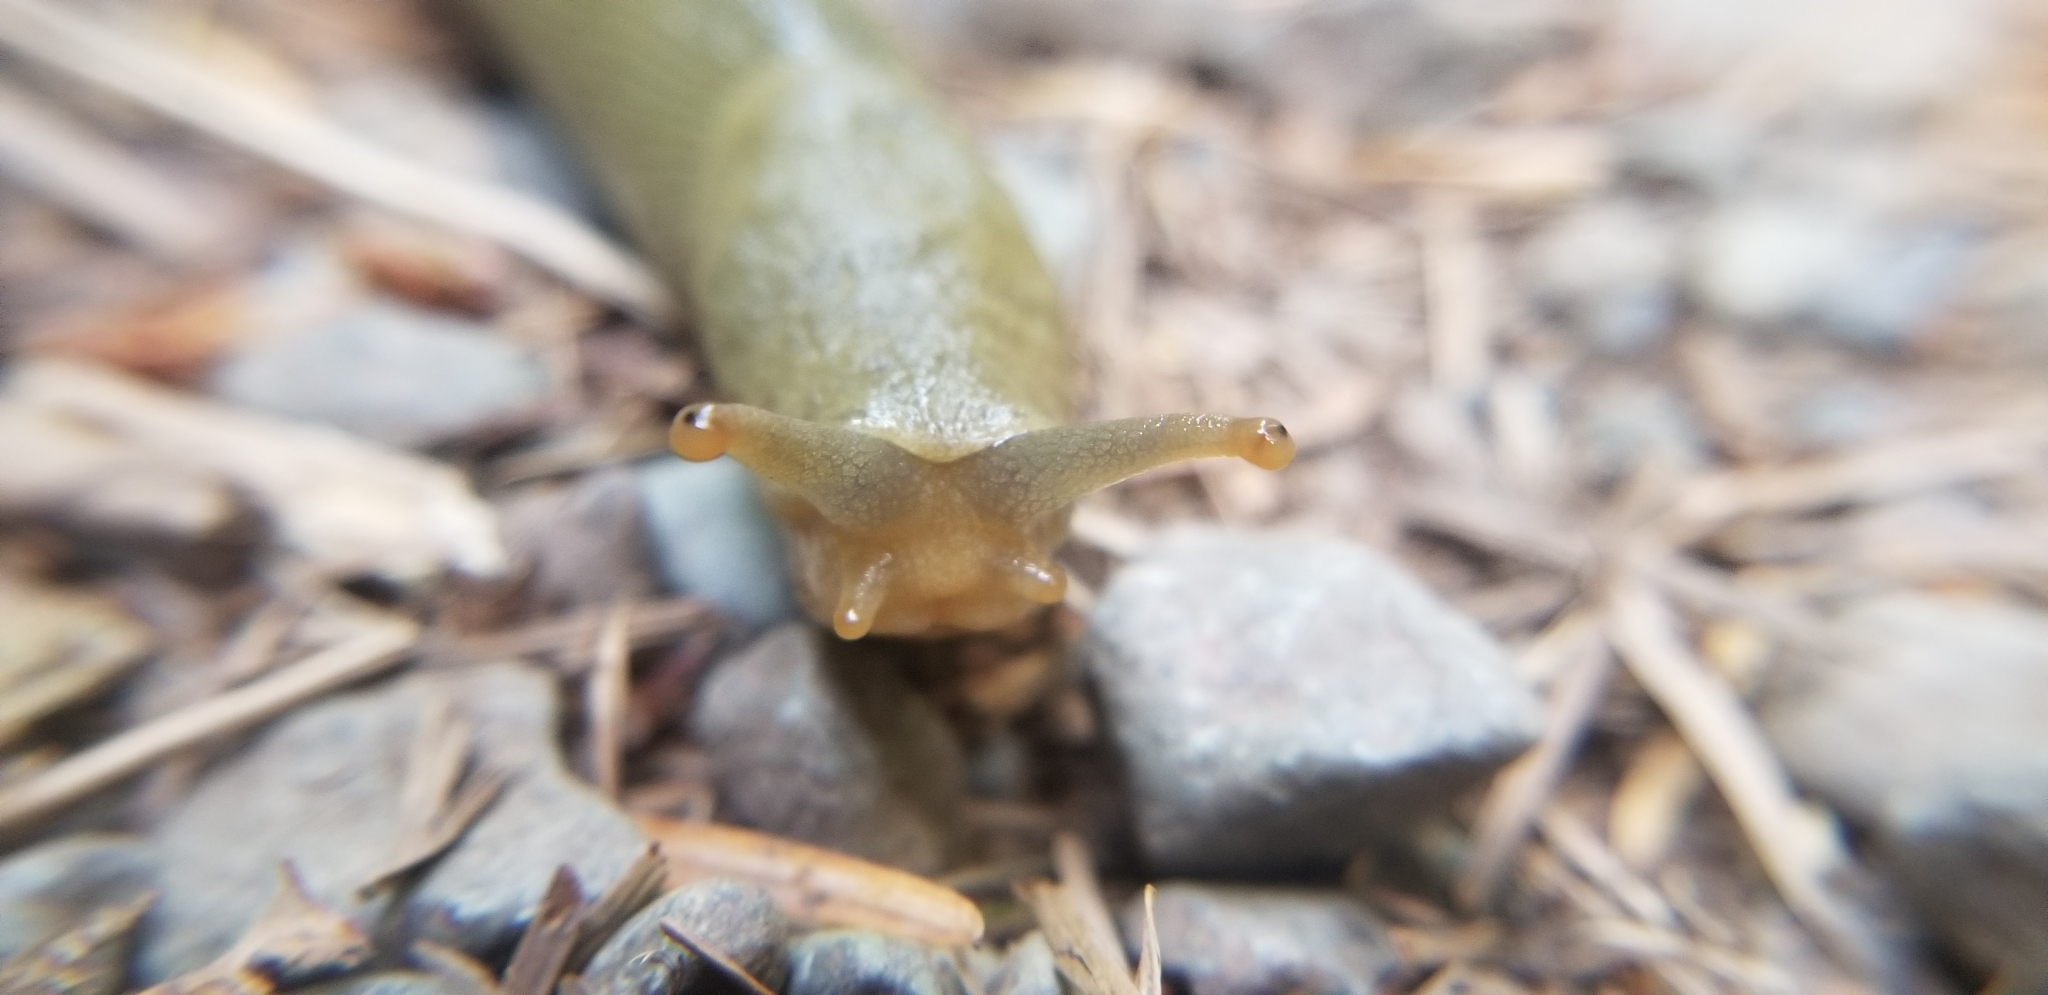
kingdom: Animalia
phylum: Mollusca
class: Gastropoda
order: Stylommatophora
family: Ariolimacidae
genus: Ariolimax
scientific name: Ariolimax columbianus
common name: Pacific banana slug
